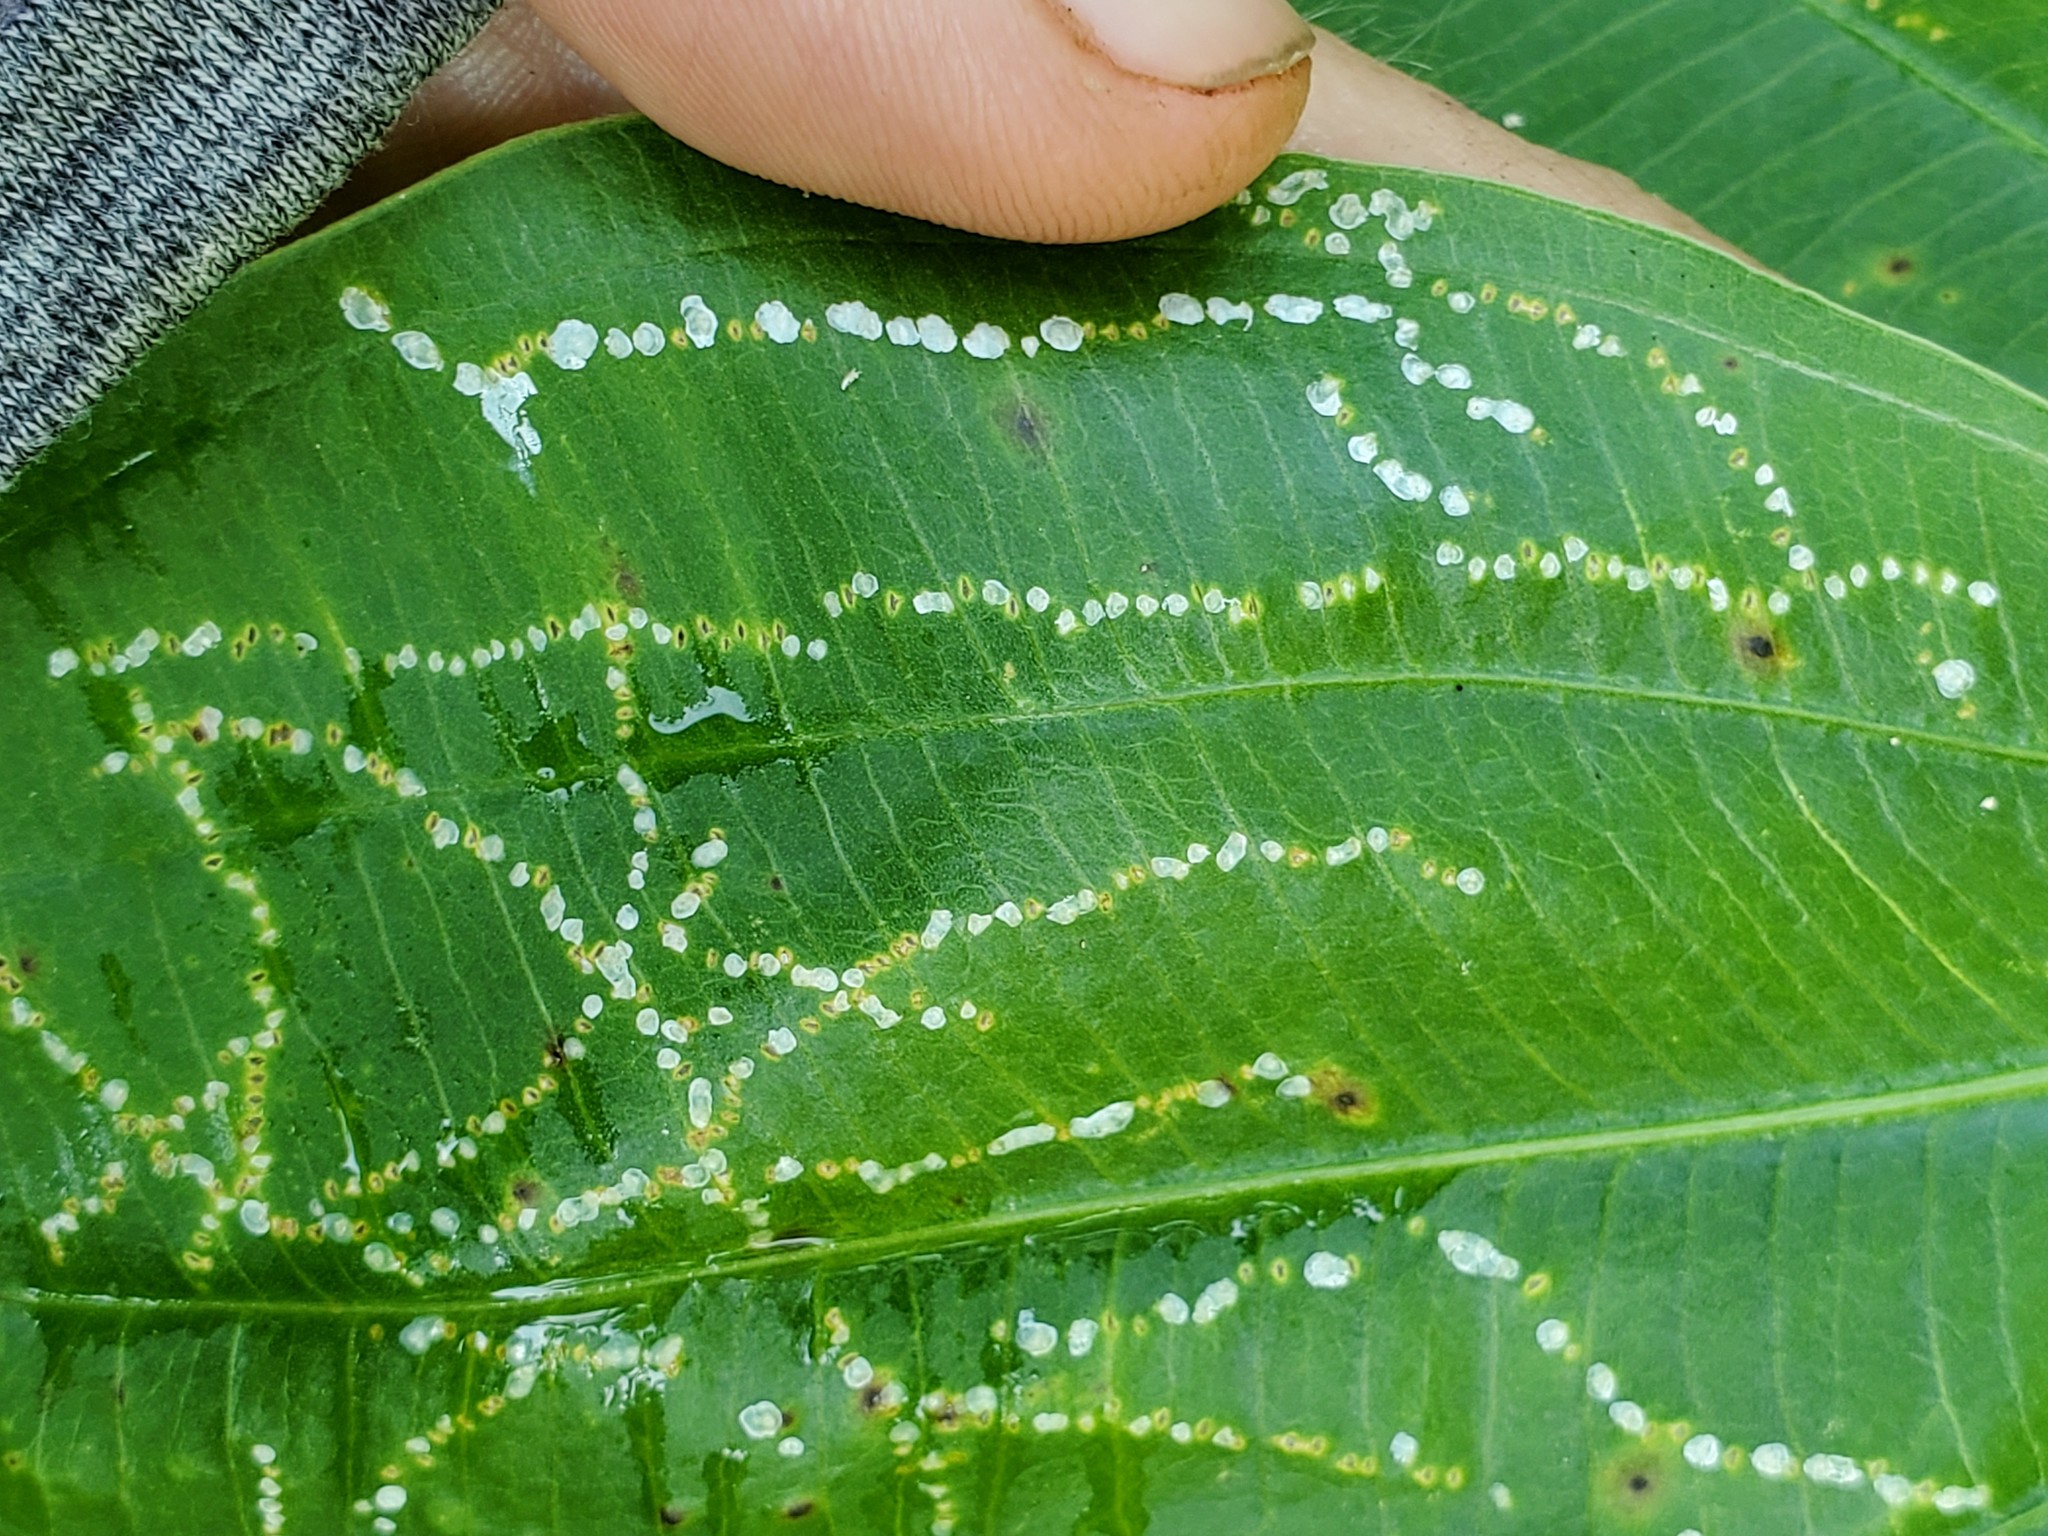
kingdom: Plantae
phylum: Tracheophyta
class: Liliopsida
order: Alismatales
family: Alismataceae
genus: Sagittaria
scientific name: Sagittaria
